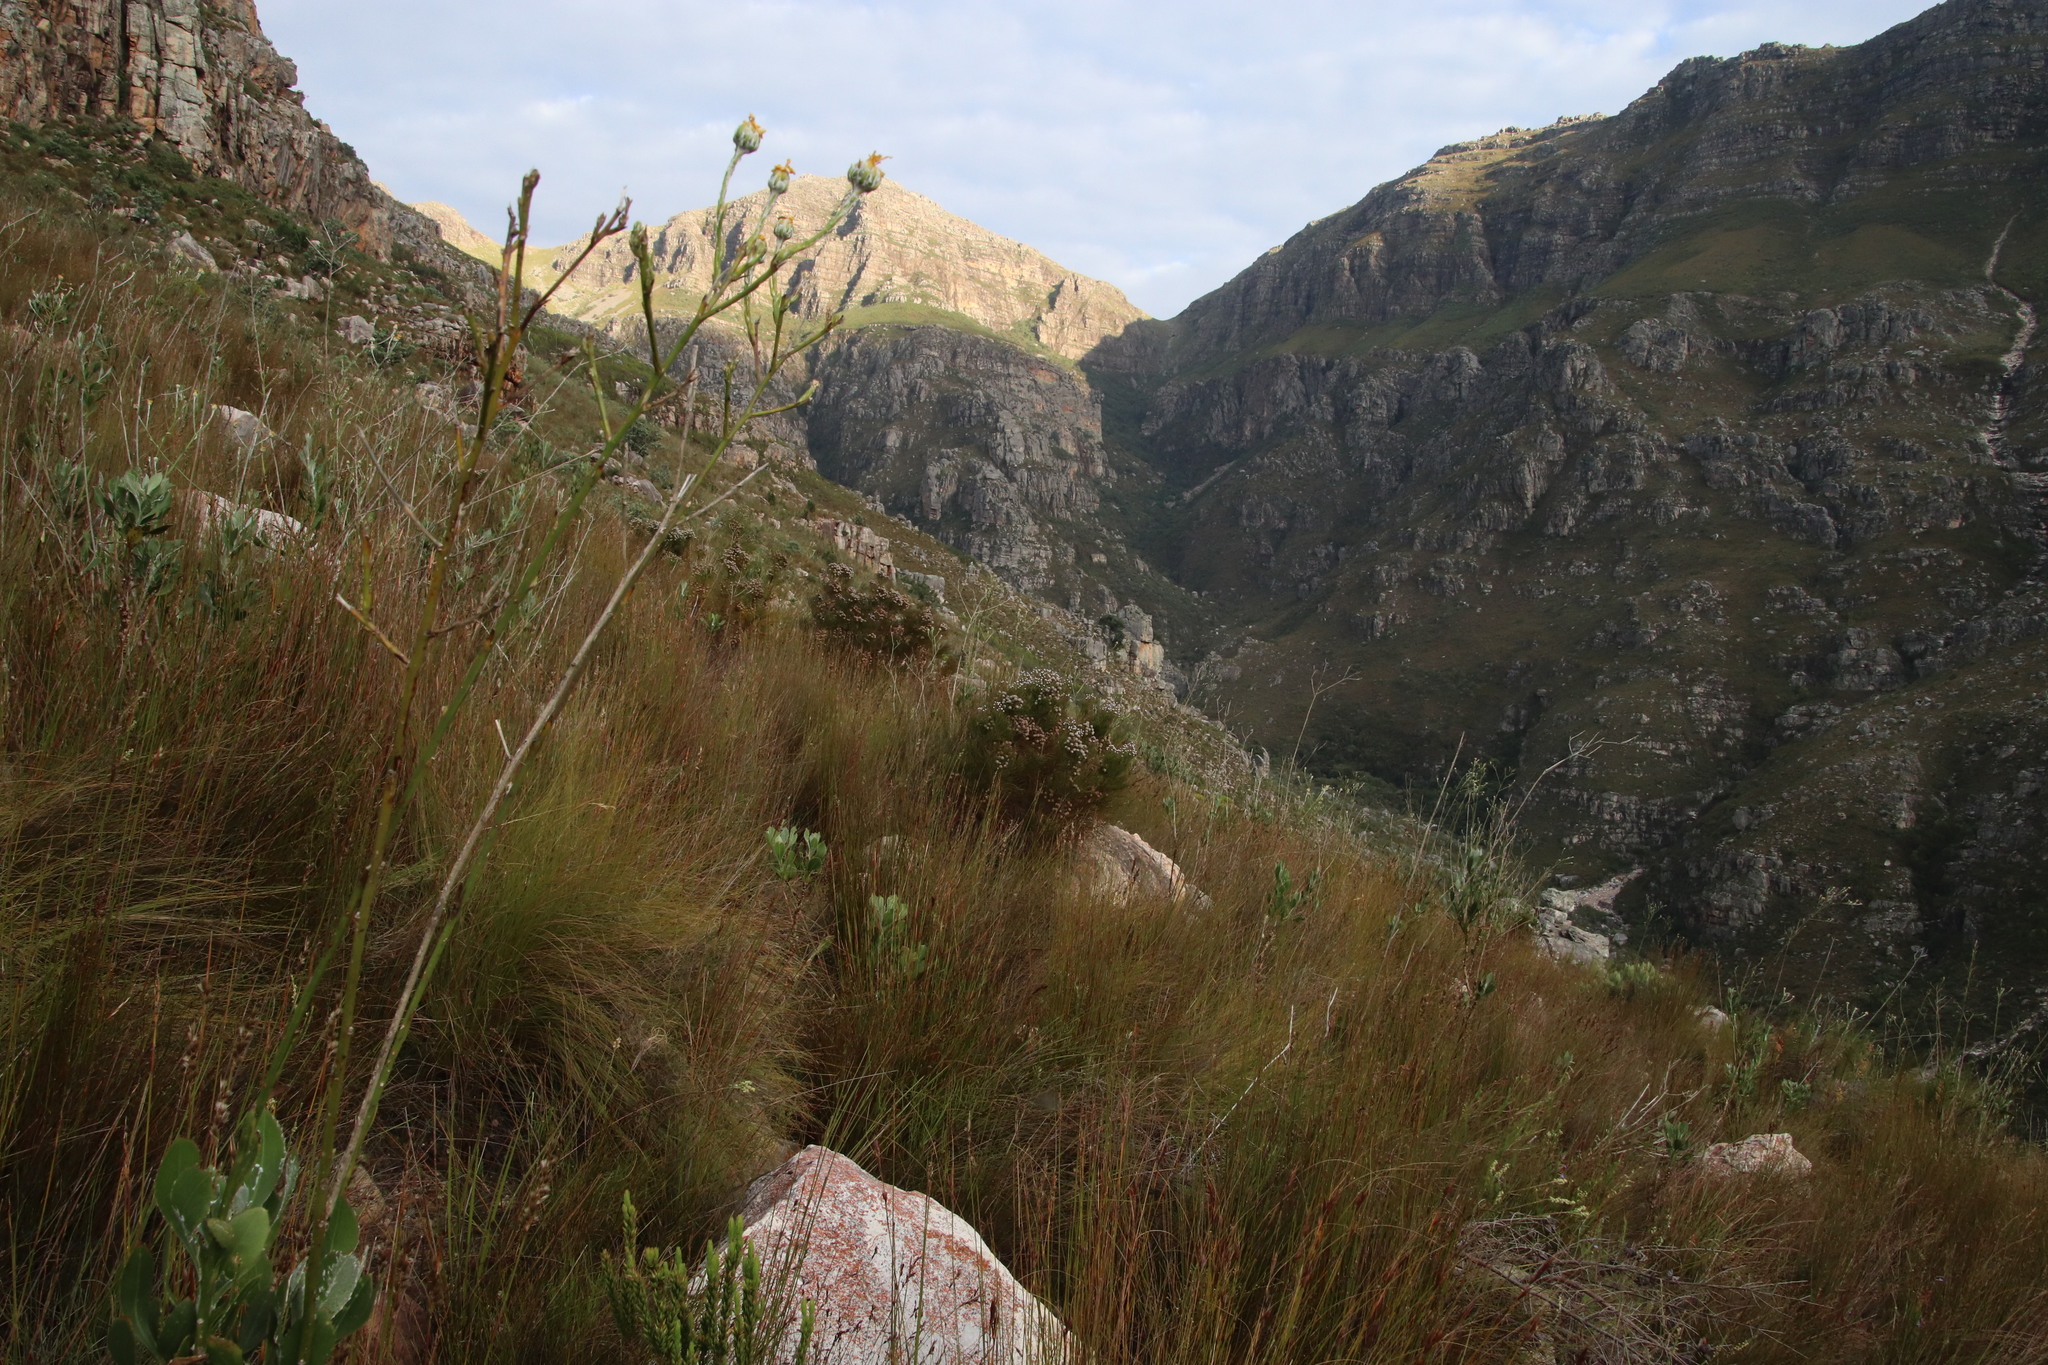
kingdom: Plantae
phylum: Tracheophyta
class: Magnoliopsida
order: Asterales
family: Asteraceae
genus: Osteospermum
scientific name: Osteospermum junceum
